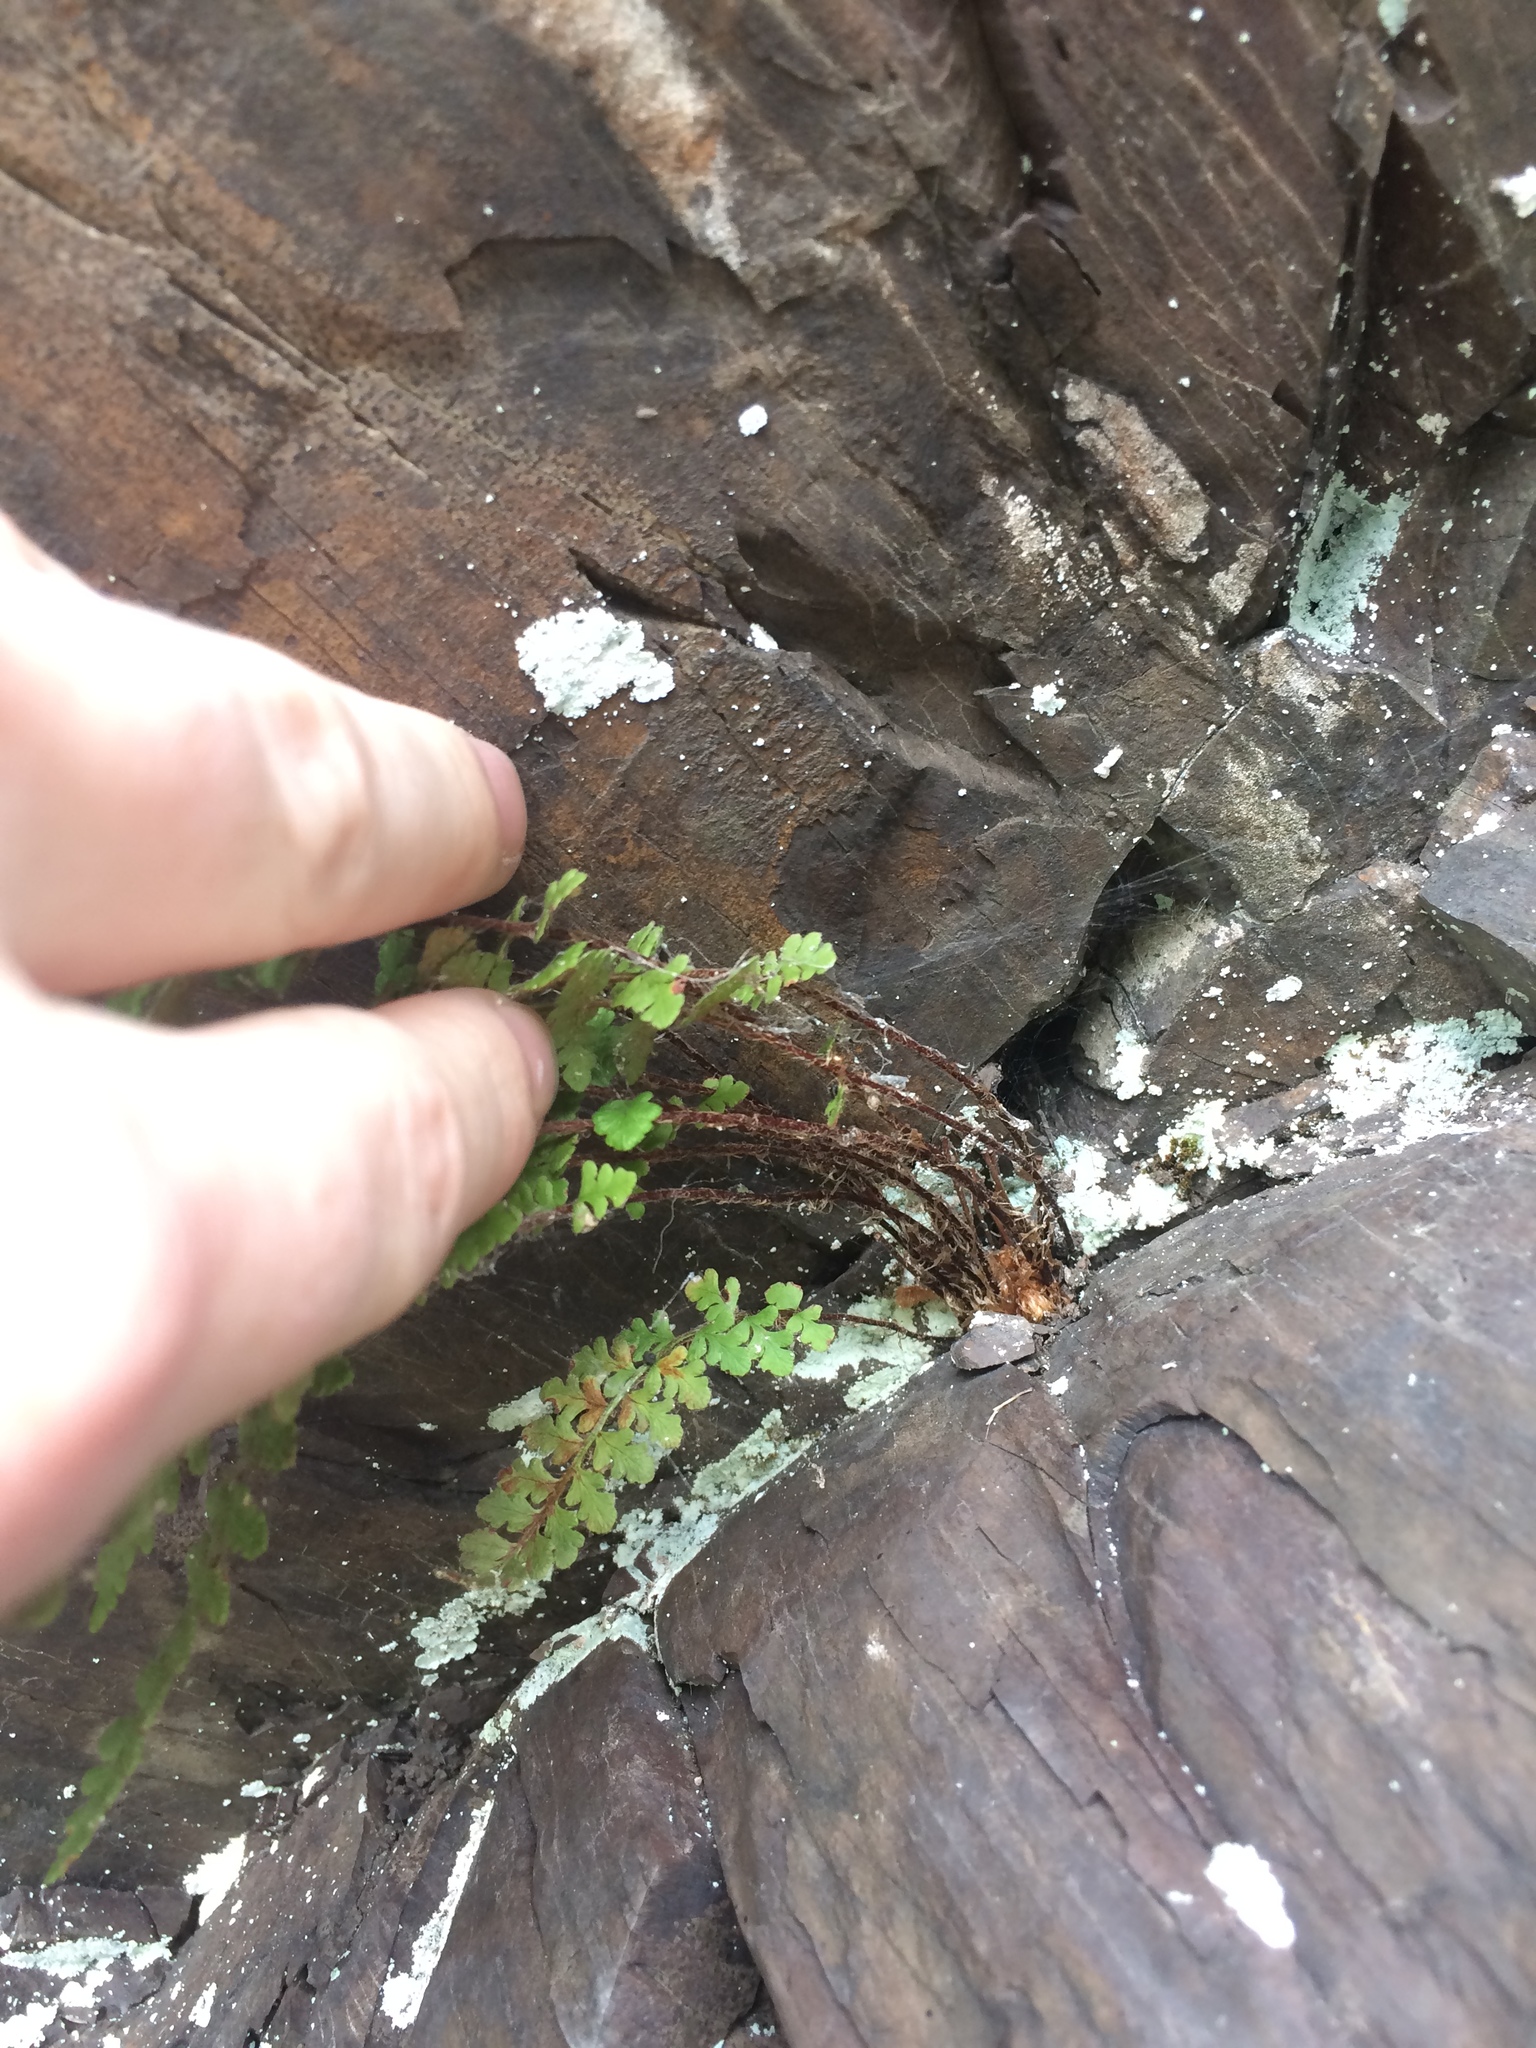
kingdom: Plantae
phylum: Tracheophyta
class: Polypodiopsida
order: Polypodiales
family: Woodsiaceae
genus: Woodsia
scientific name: Woodsia ilvensis
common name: Fragrant woodsia
